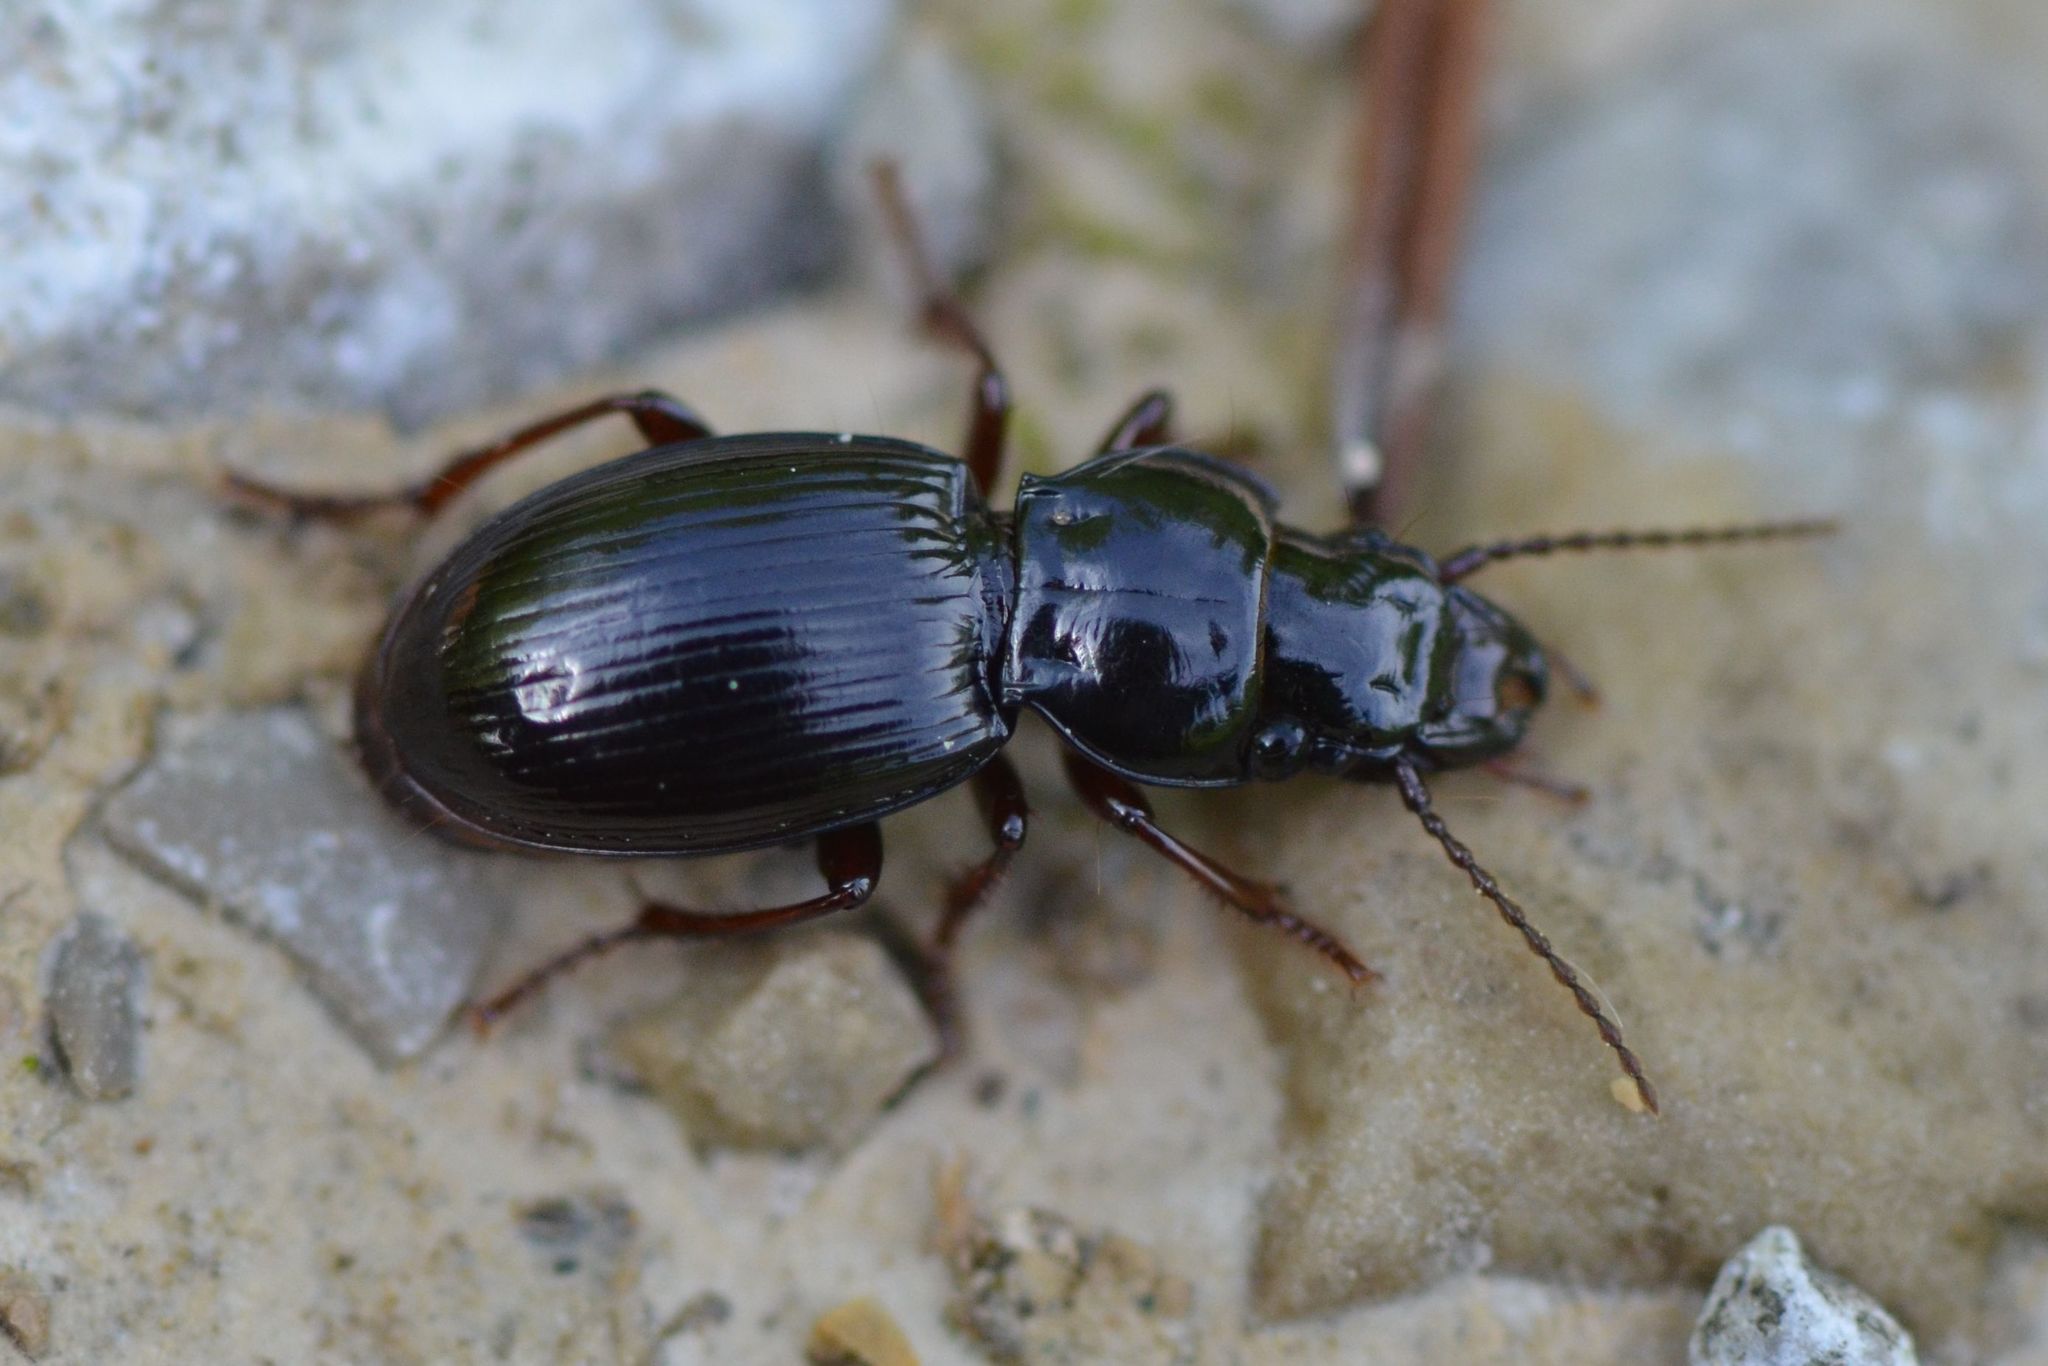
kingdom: Animalia
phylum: Arthropoda
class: Insecta
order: Coleoptera
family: Carabidae
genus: Molops
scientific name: Molops piceus
